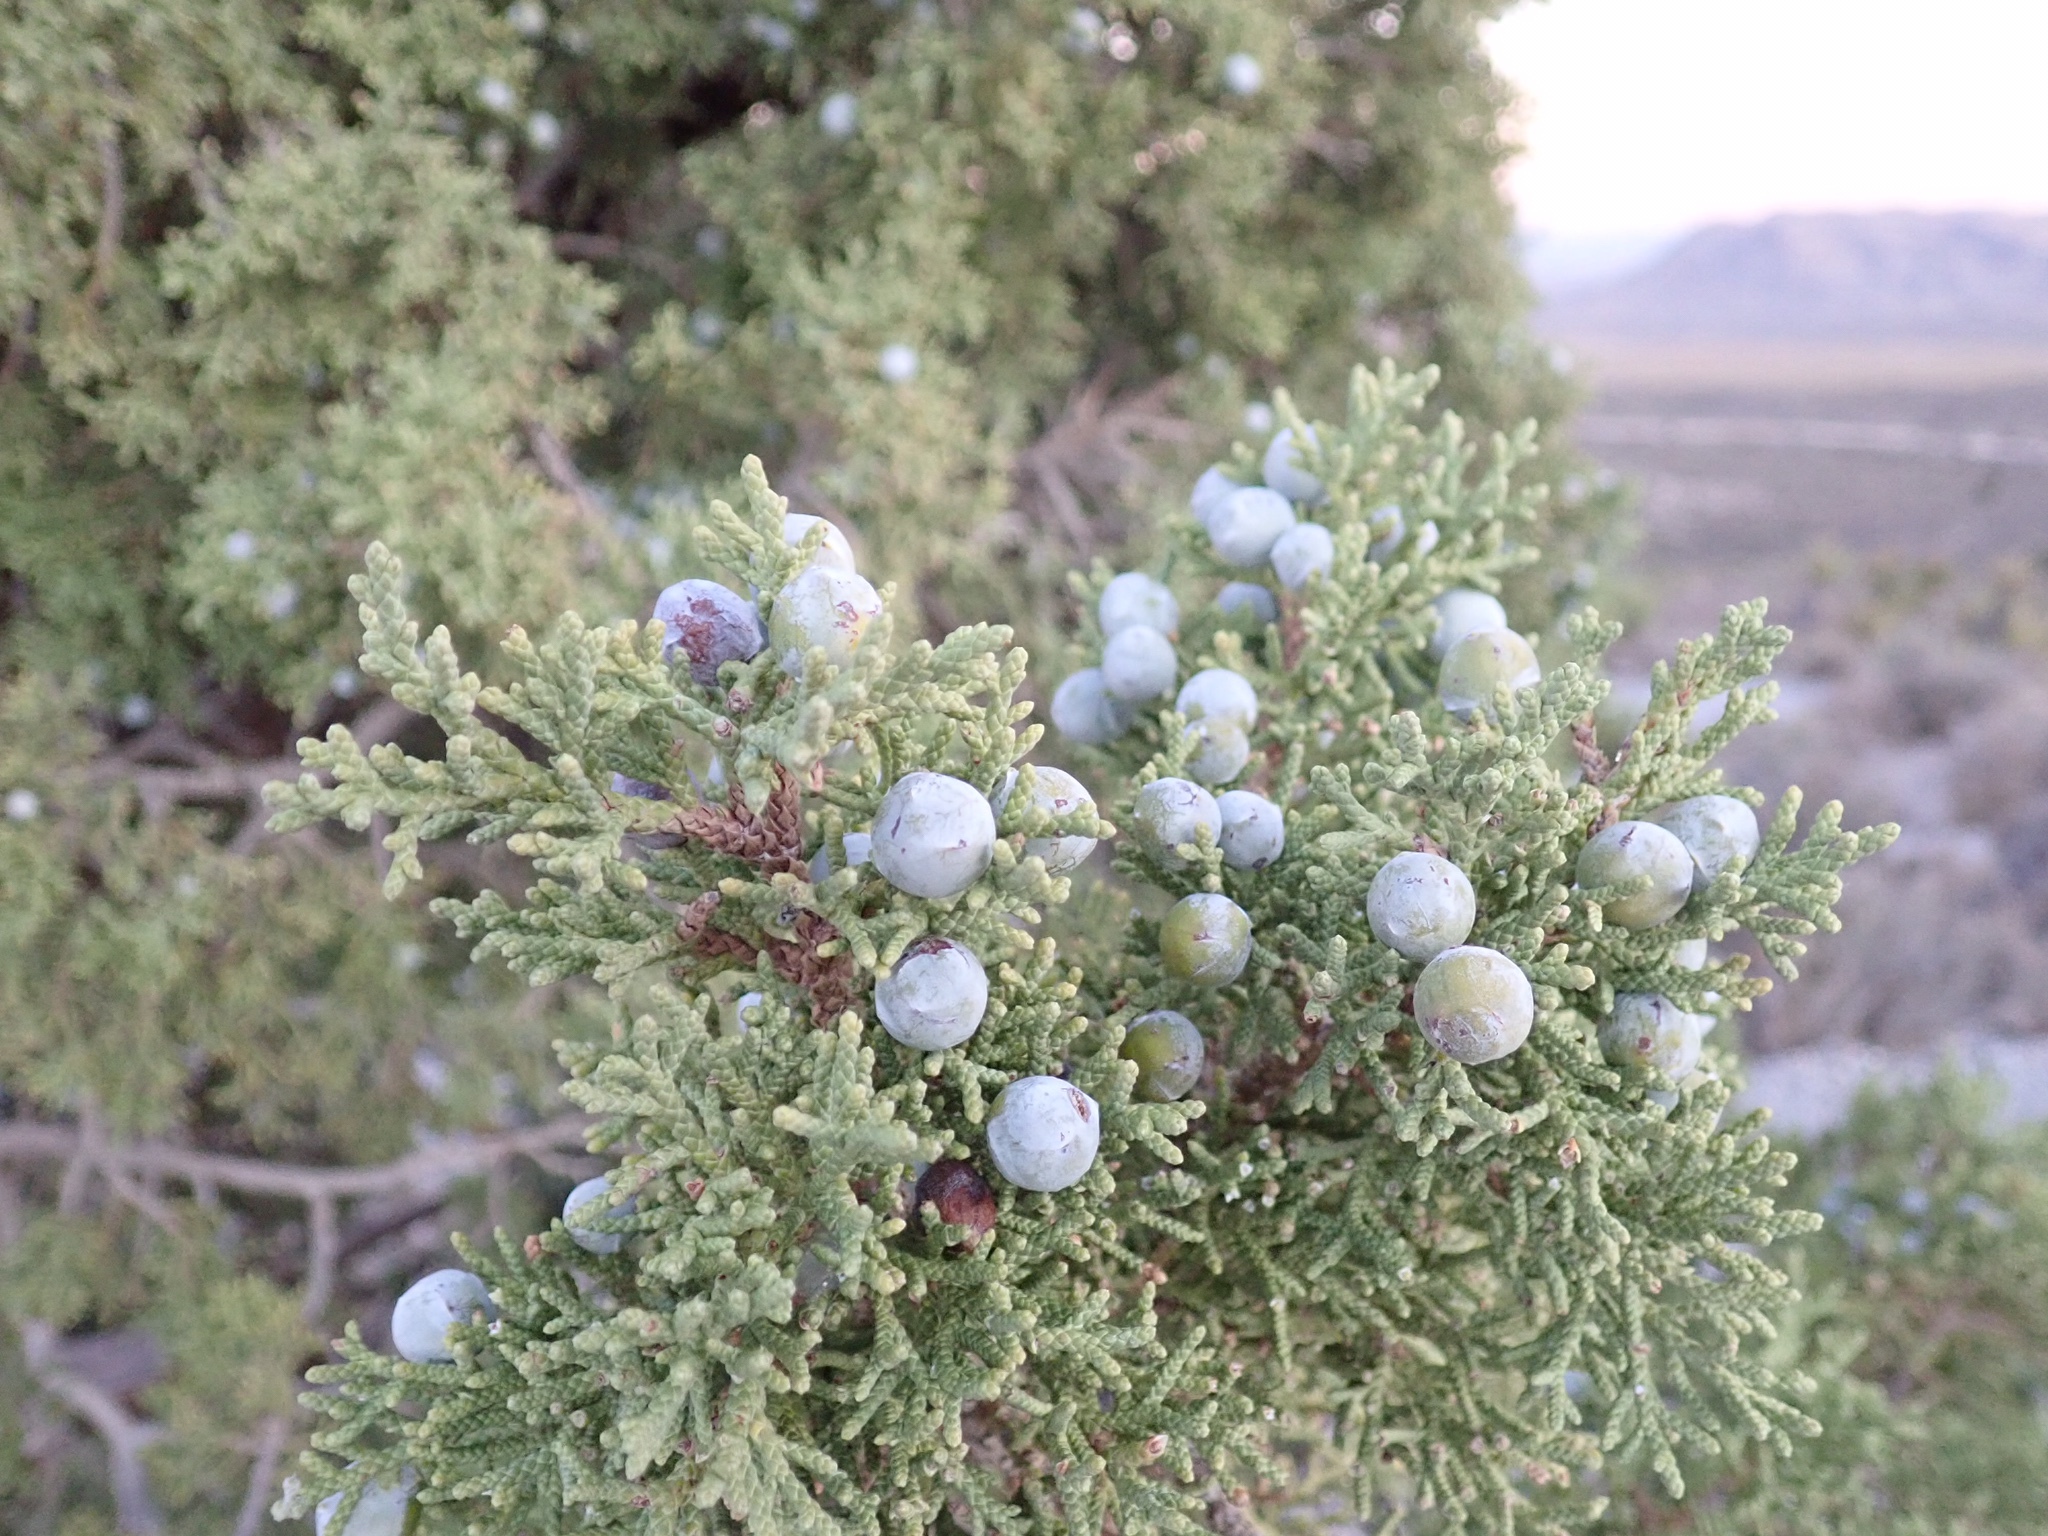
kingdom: Plantae
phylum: Tracheophyta
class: Pinopsida
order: Pinales
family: Cupressaceae
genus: Juniperus
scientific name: Juniperus osteosperma
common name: Utah juniper
